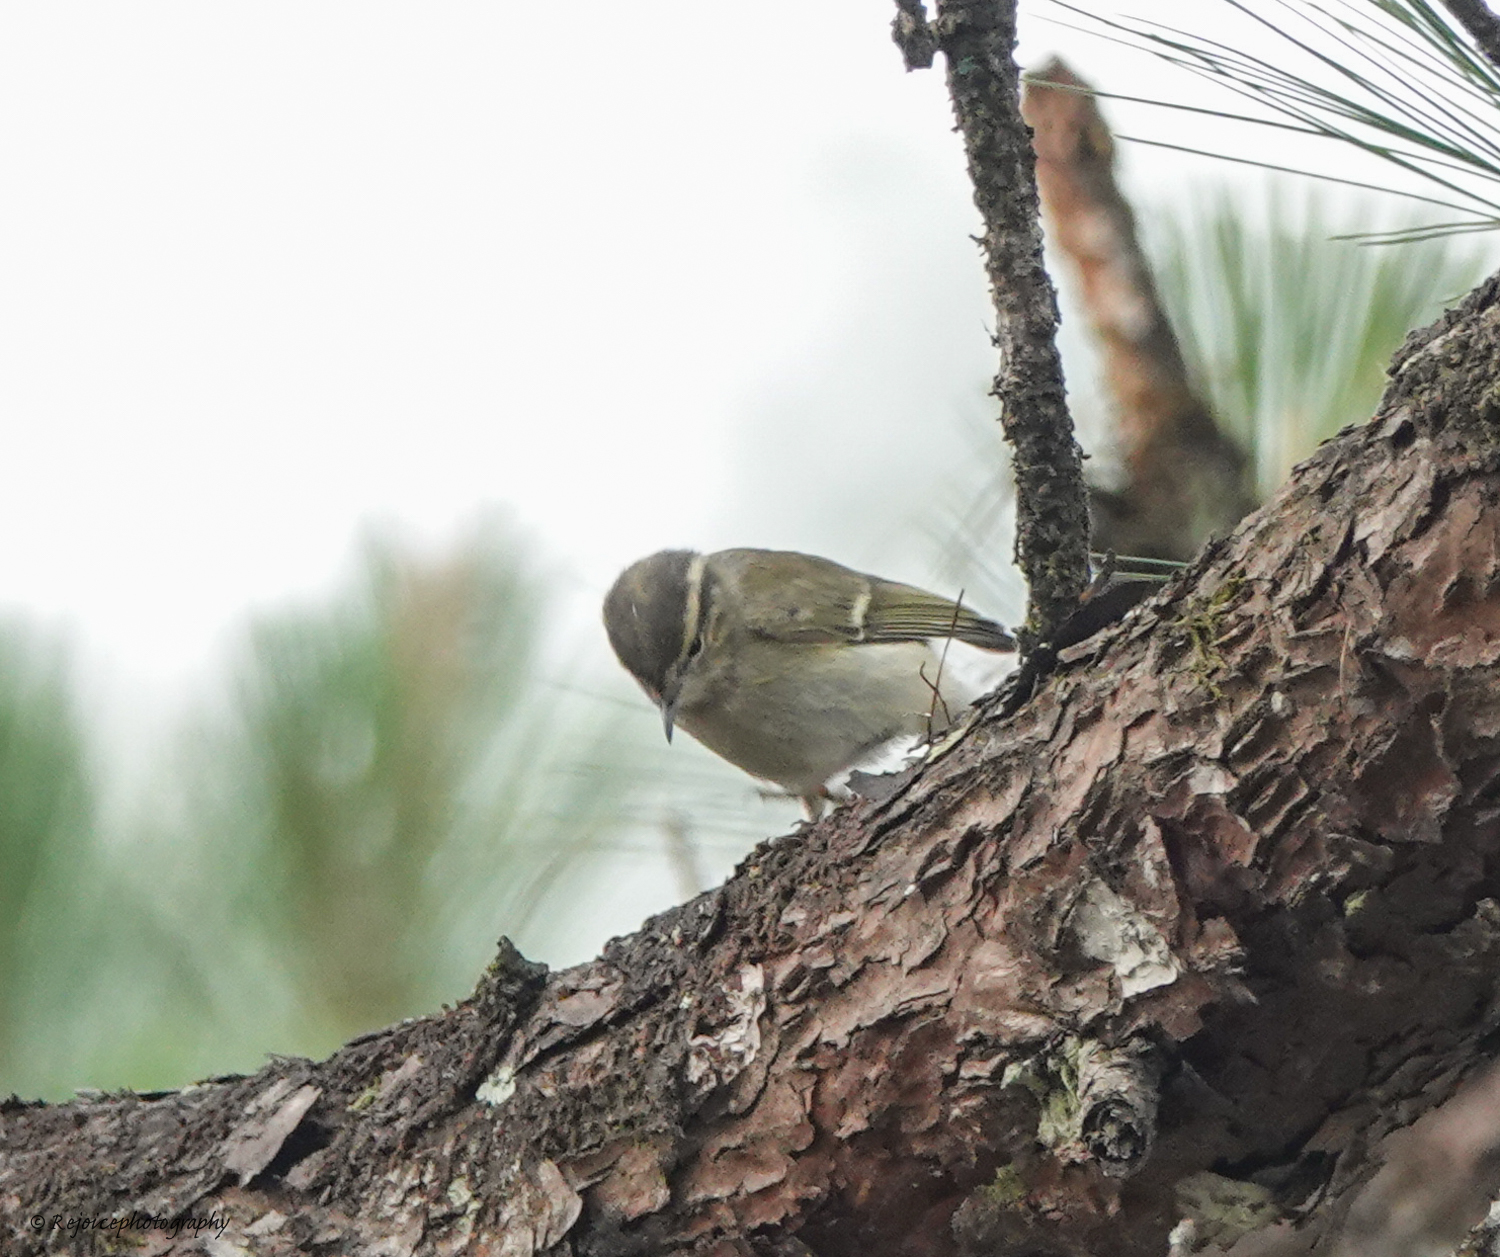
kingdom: Animalia
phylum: Chordata
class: Aves
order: Passeriformes
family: Phylloscopidae
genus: Phylloscopus
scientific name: Phylloscopus inornatus
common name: Yellow-browed warbler
